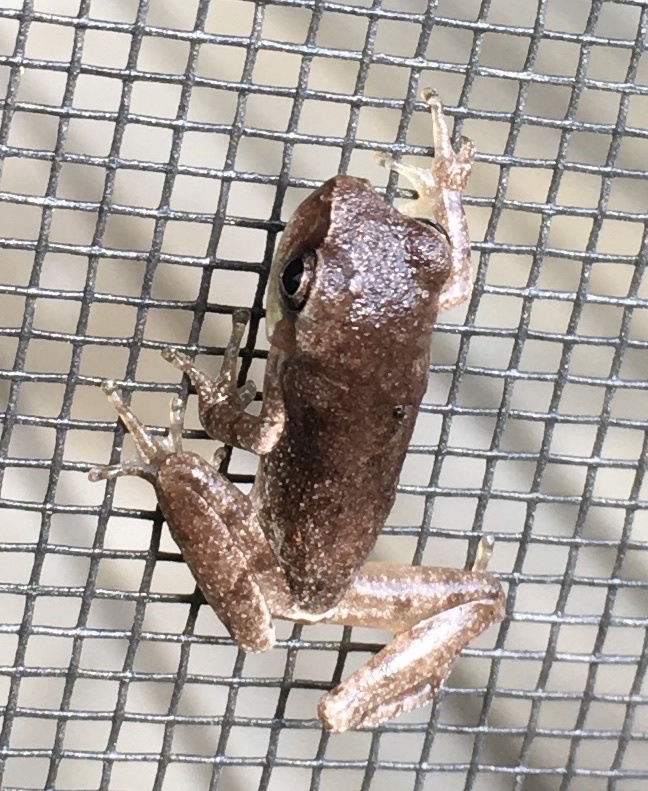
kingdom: Animalia
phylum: Chordata
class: Amphibia
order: Anura
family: Hylidae
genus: Hyla
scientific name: Hyla femoralis
